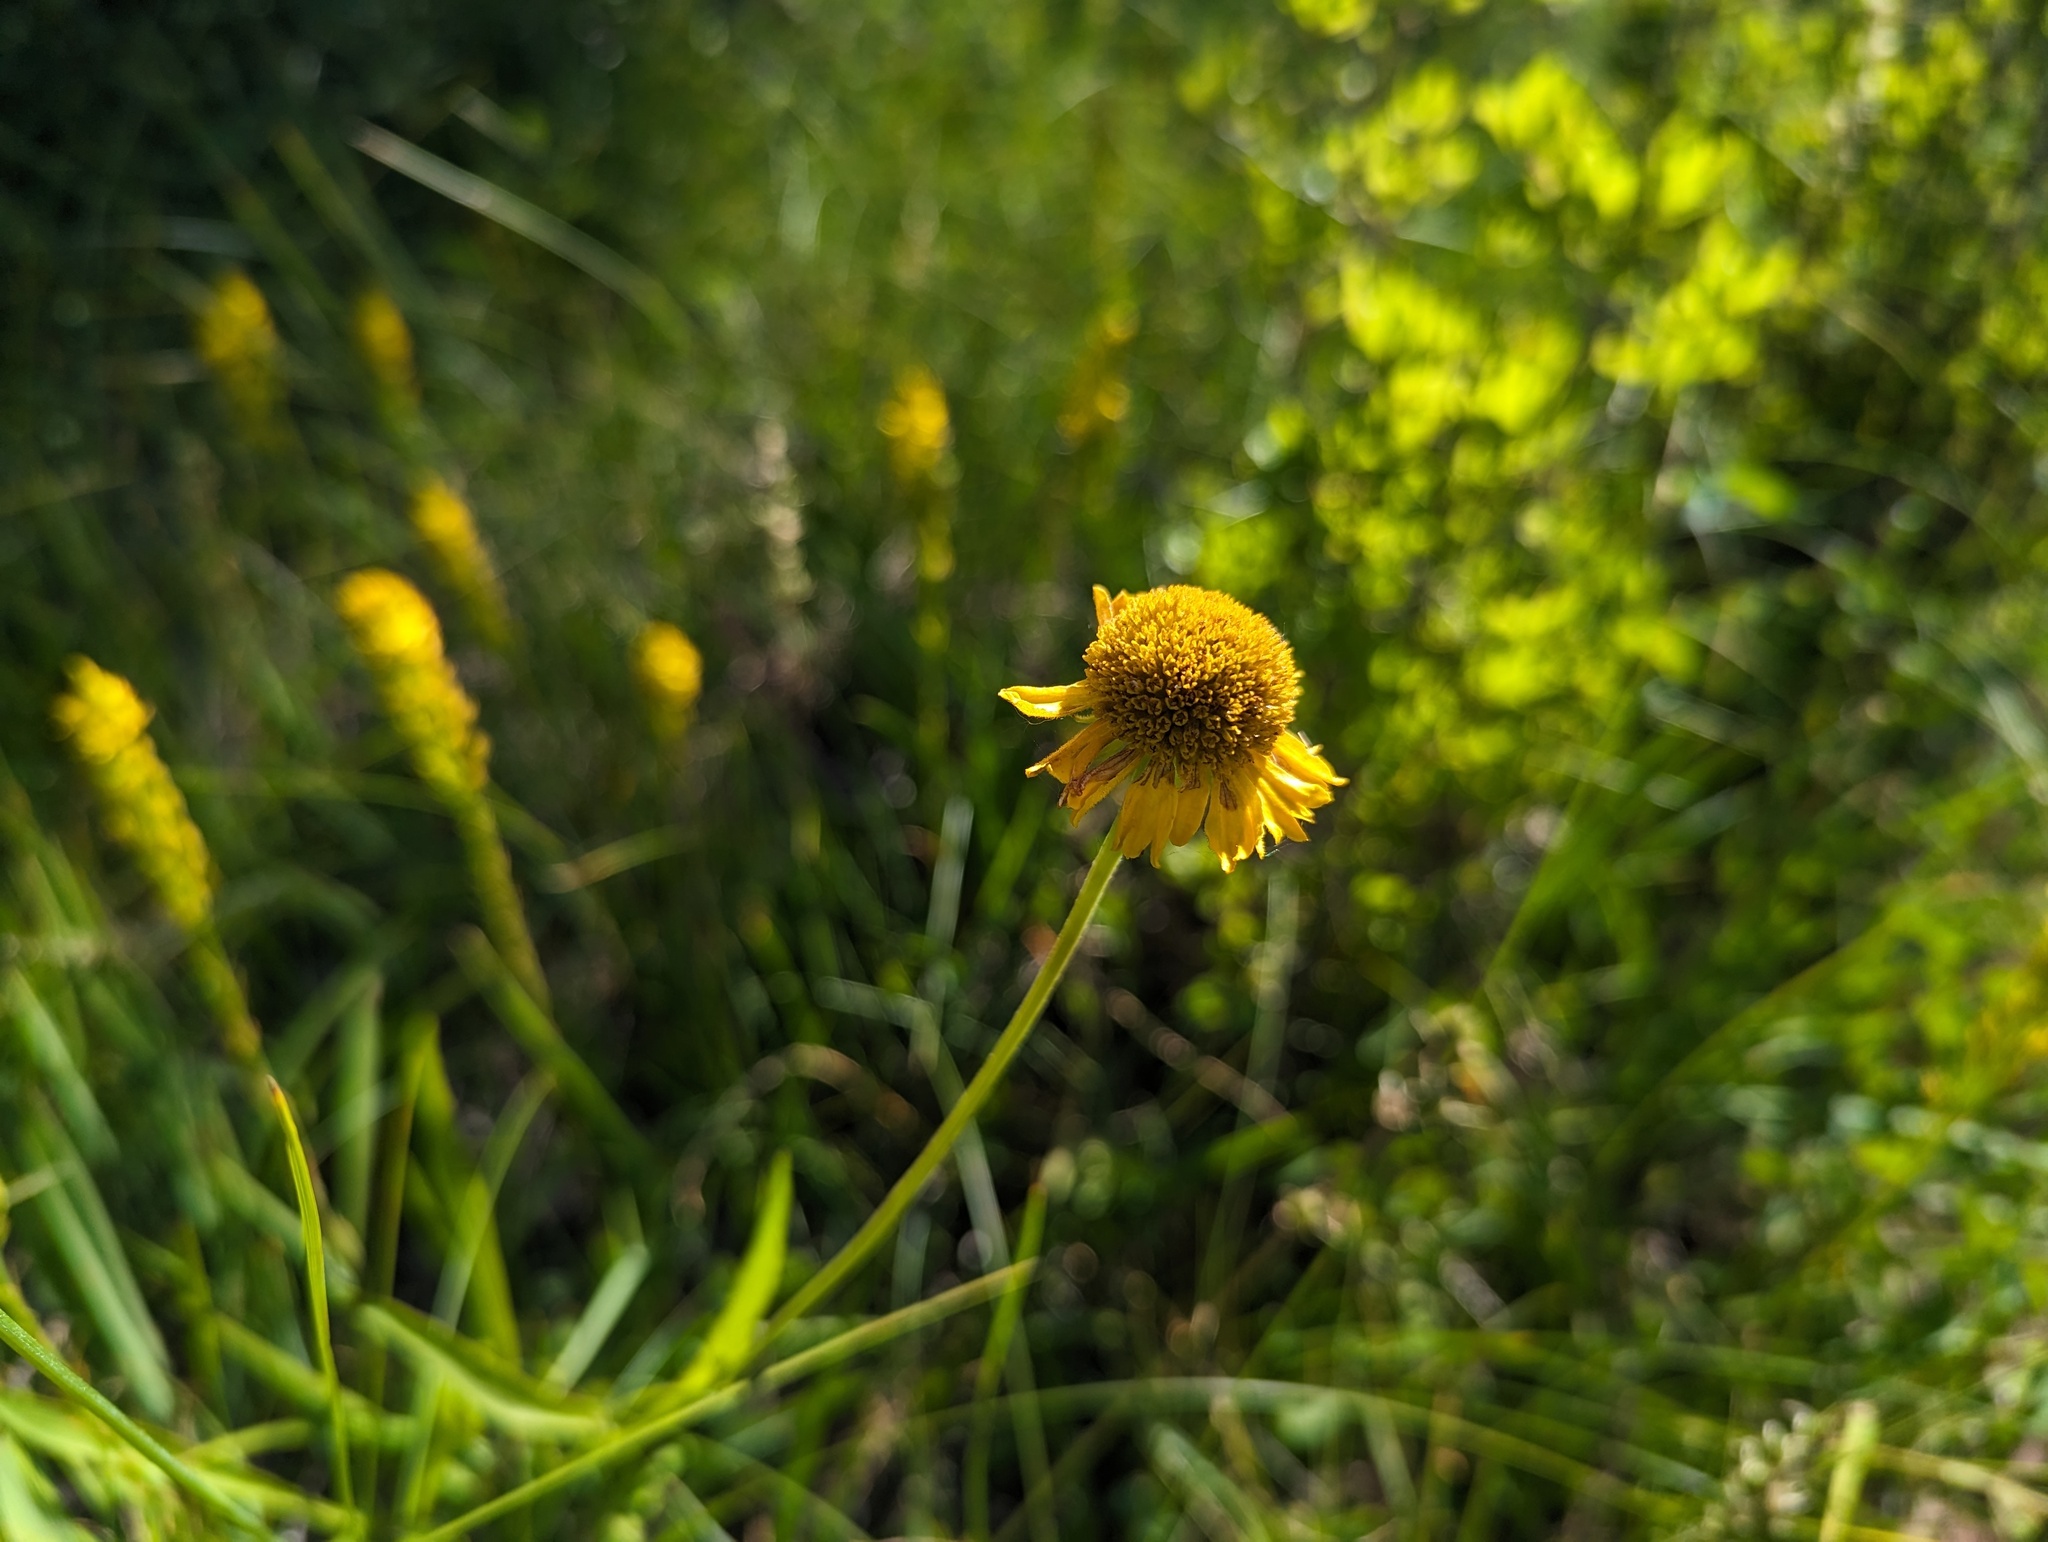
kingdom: Plantae
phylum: Tracheophyta
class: Magnoliopsida
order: Asterales
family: Asteraceae
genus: Helenium
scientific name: Helenium bigelovii
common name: Bigelow's sneezeweed
